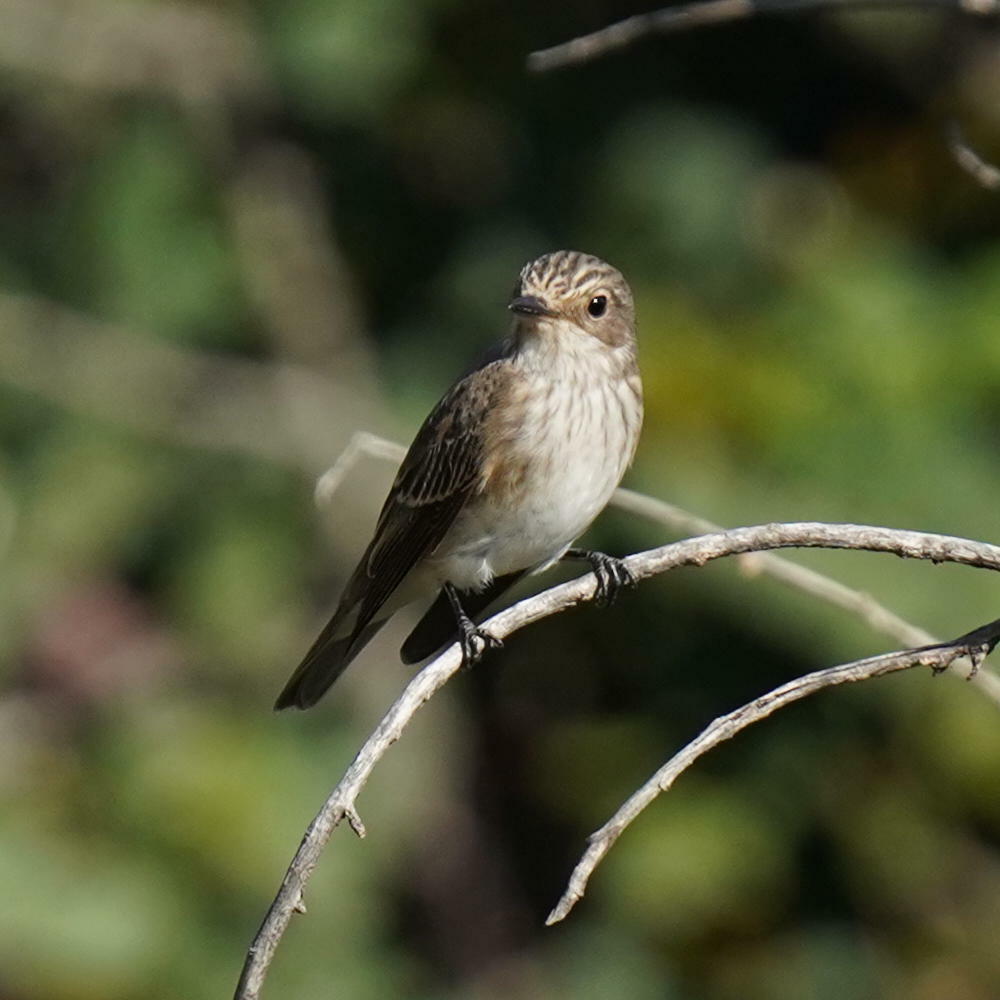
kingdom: Animalia
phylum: Chordata
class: Aves
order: Passeriformes
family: Muscicapidae
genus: Muscicapa
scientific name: Muscicapa striata
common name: Spotted flycatcher
